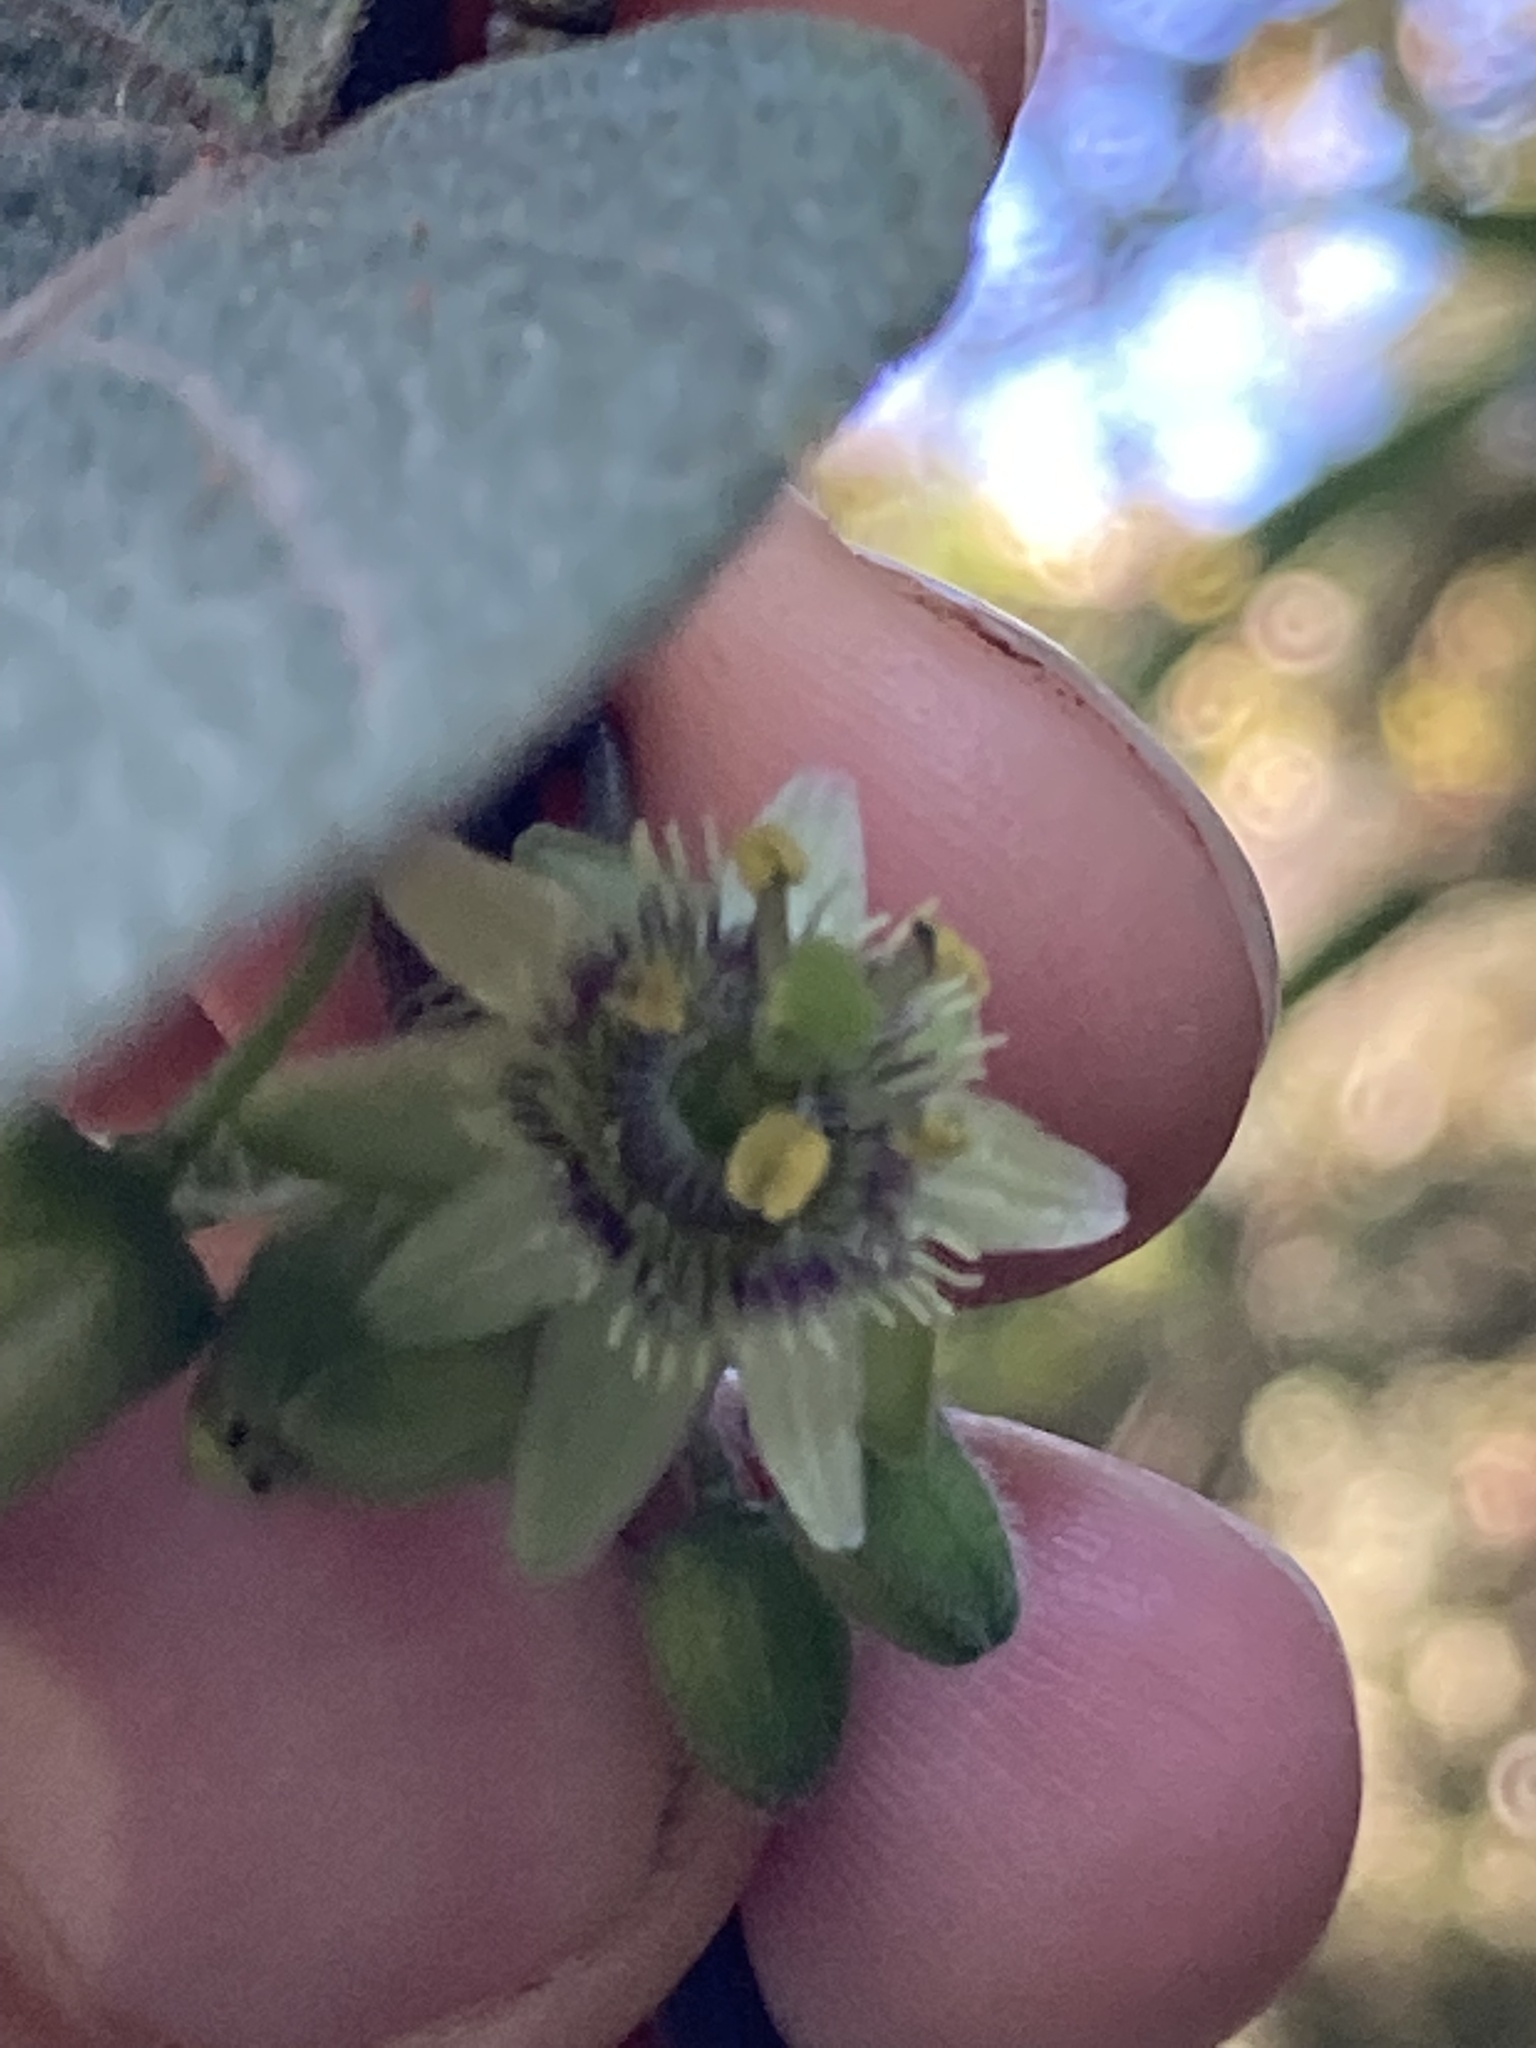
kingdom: Plantae
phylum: Tracheophyta
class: Magnoliopsida
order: Malpighiales
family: Passifloraceae
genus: Passiflora
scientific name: Passiflora sexflora
